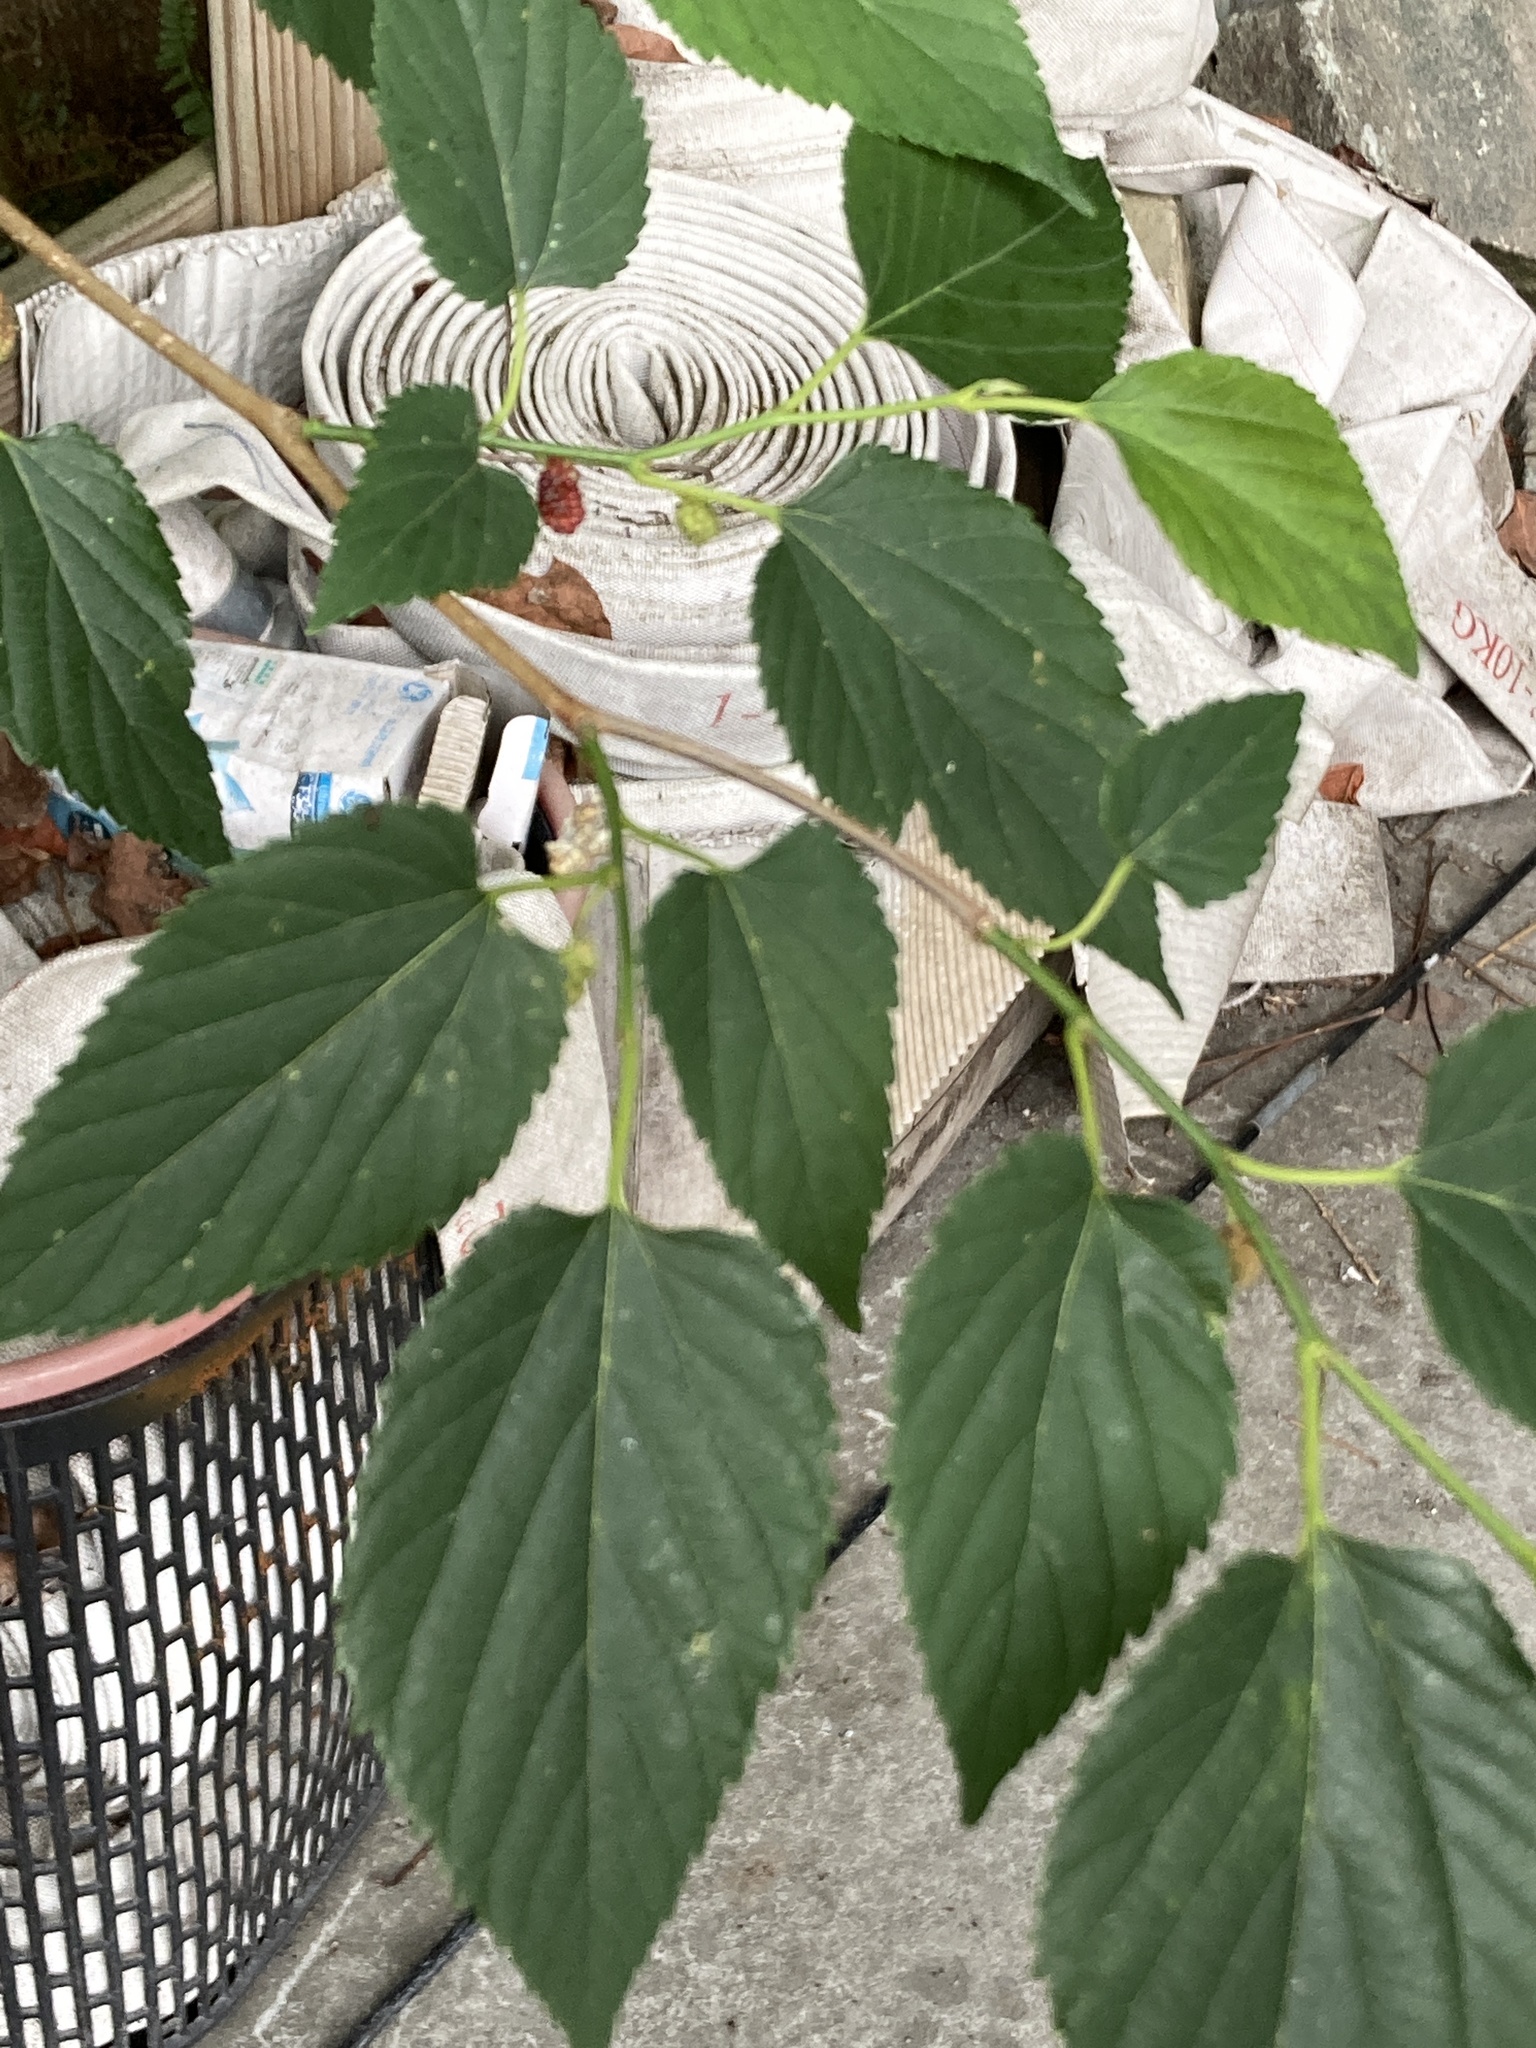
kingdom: Plantae
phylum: Tracheophyta
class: Magnoliopsida
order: Rosales
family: Moraceae
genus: Morus
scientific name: Morus indica
